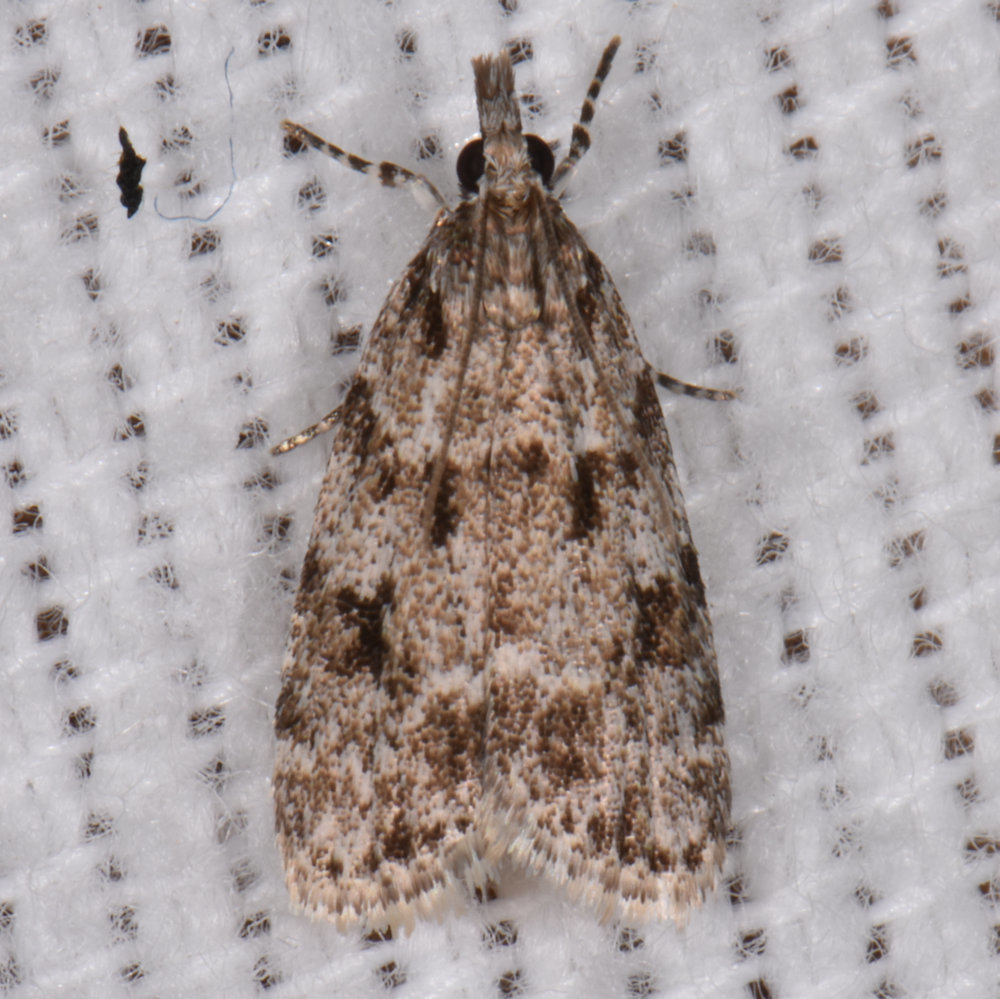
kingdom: Animalia
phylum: Arthropoda
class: Insecta
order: Lepidoptera
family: Crambidae
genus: Scoparia
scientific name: Scoparia basalis
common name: Many-spotted scoparia moth
